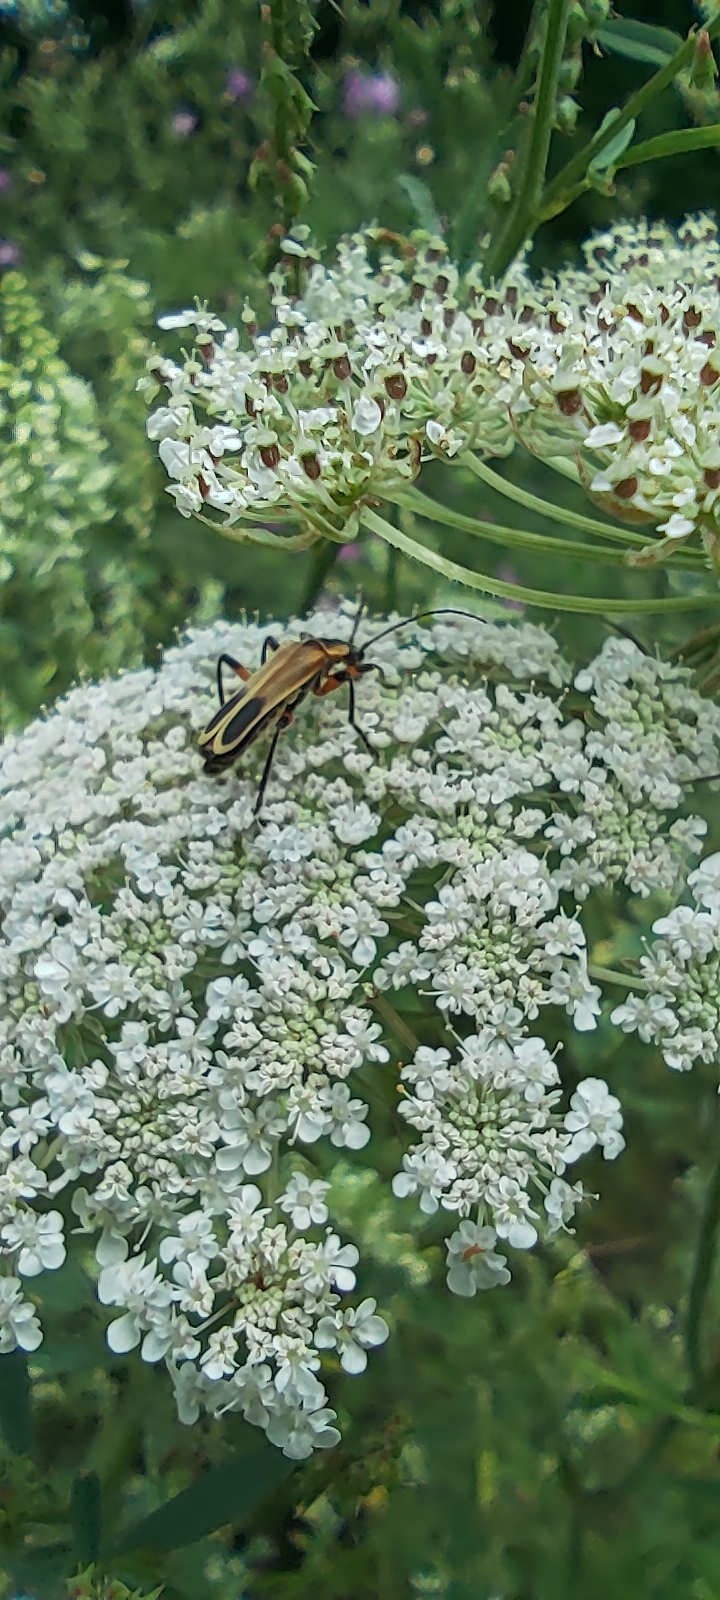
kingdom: Animalia
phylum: Arthropoda
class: Insecta
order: Coleoptera
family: Cantharidae
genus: Chauliognathus
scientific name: Chauliognathus marginatus
